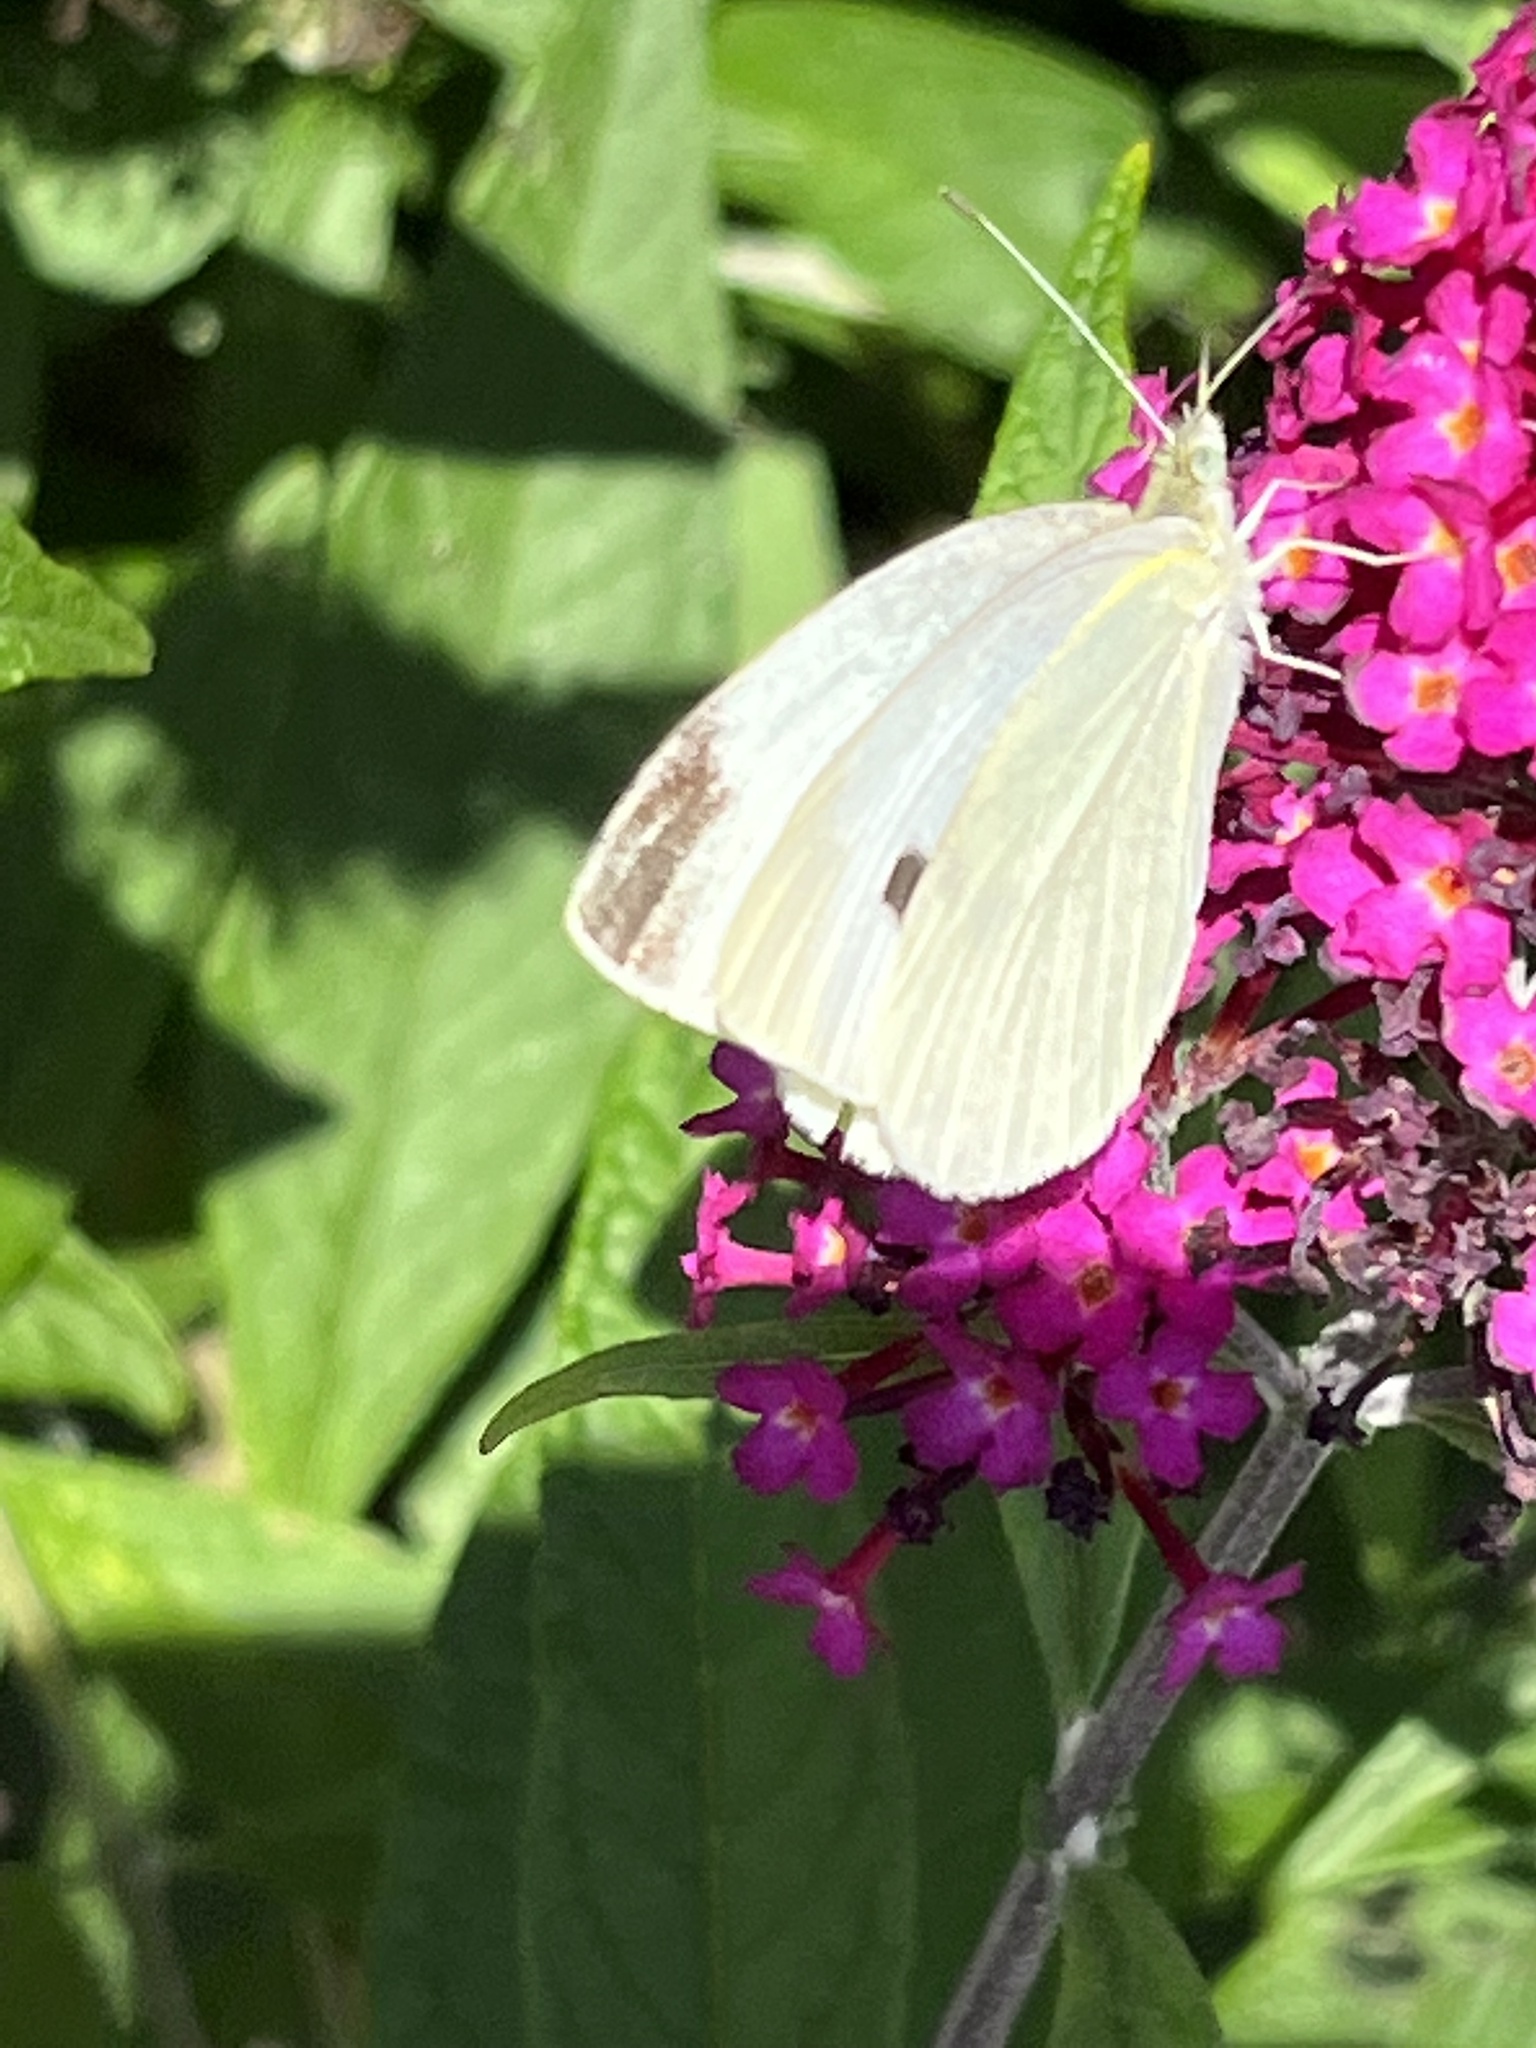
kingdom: Animalia
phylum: Arthropoda
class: Insecta
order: Lepidoptera
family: Pieridae
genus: Pieris
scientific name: Pieris rapae
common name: Small white
